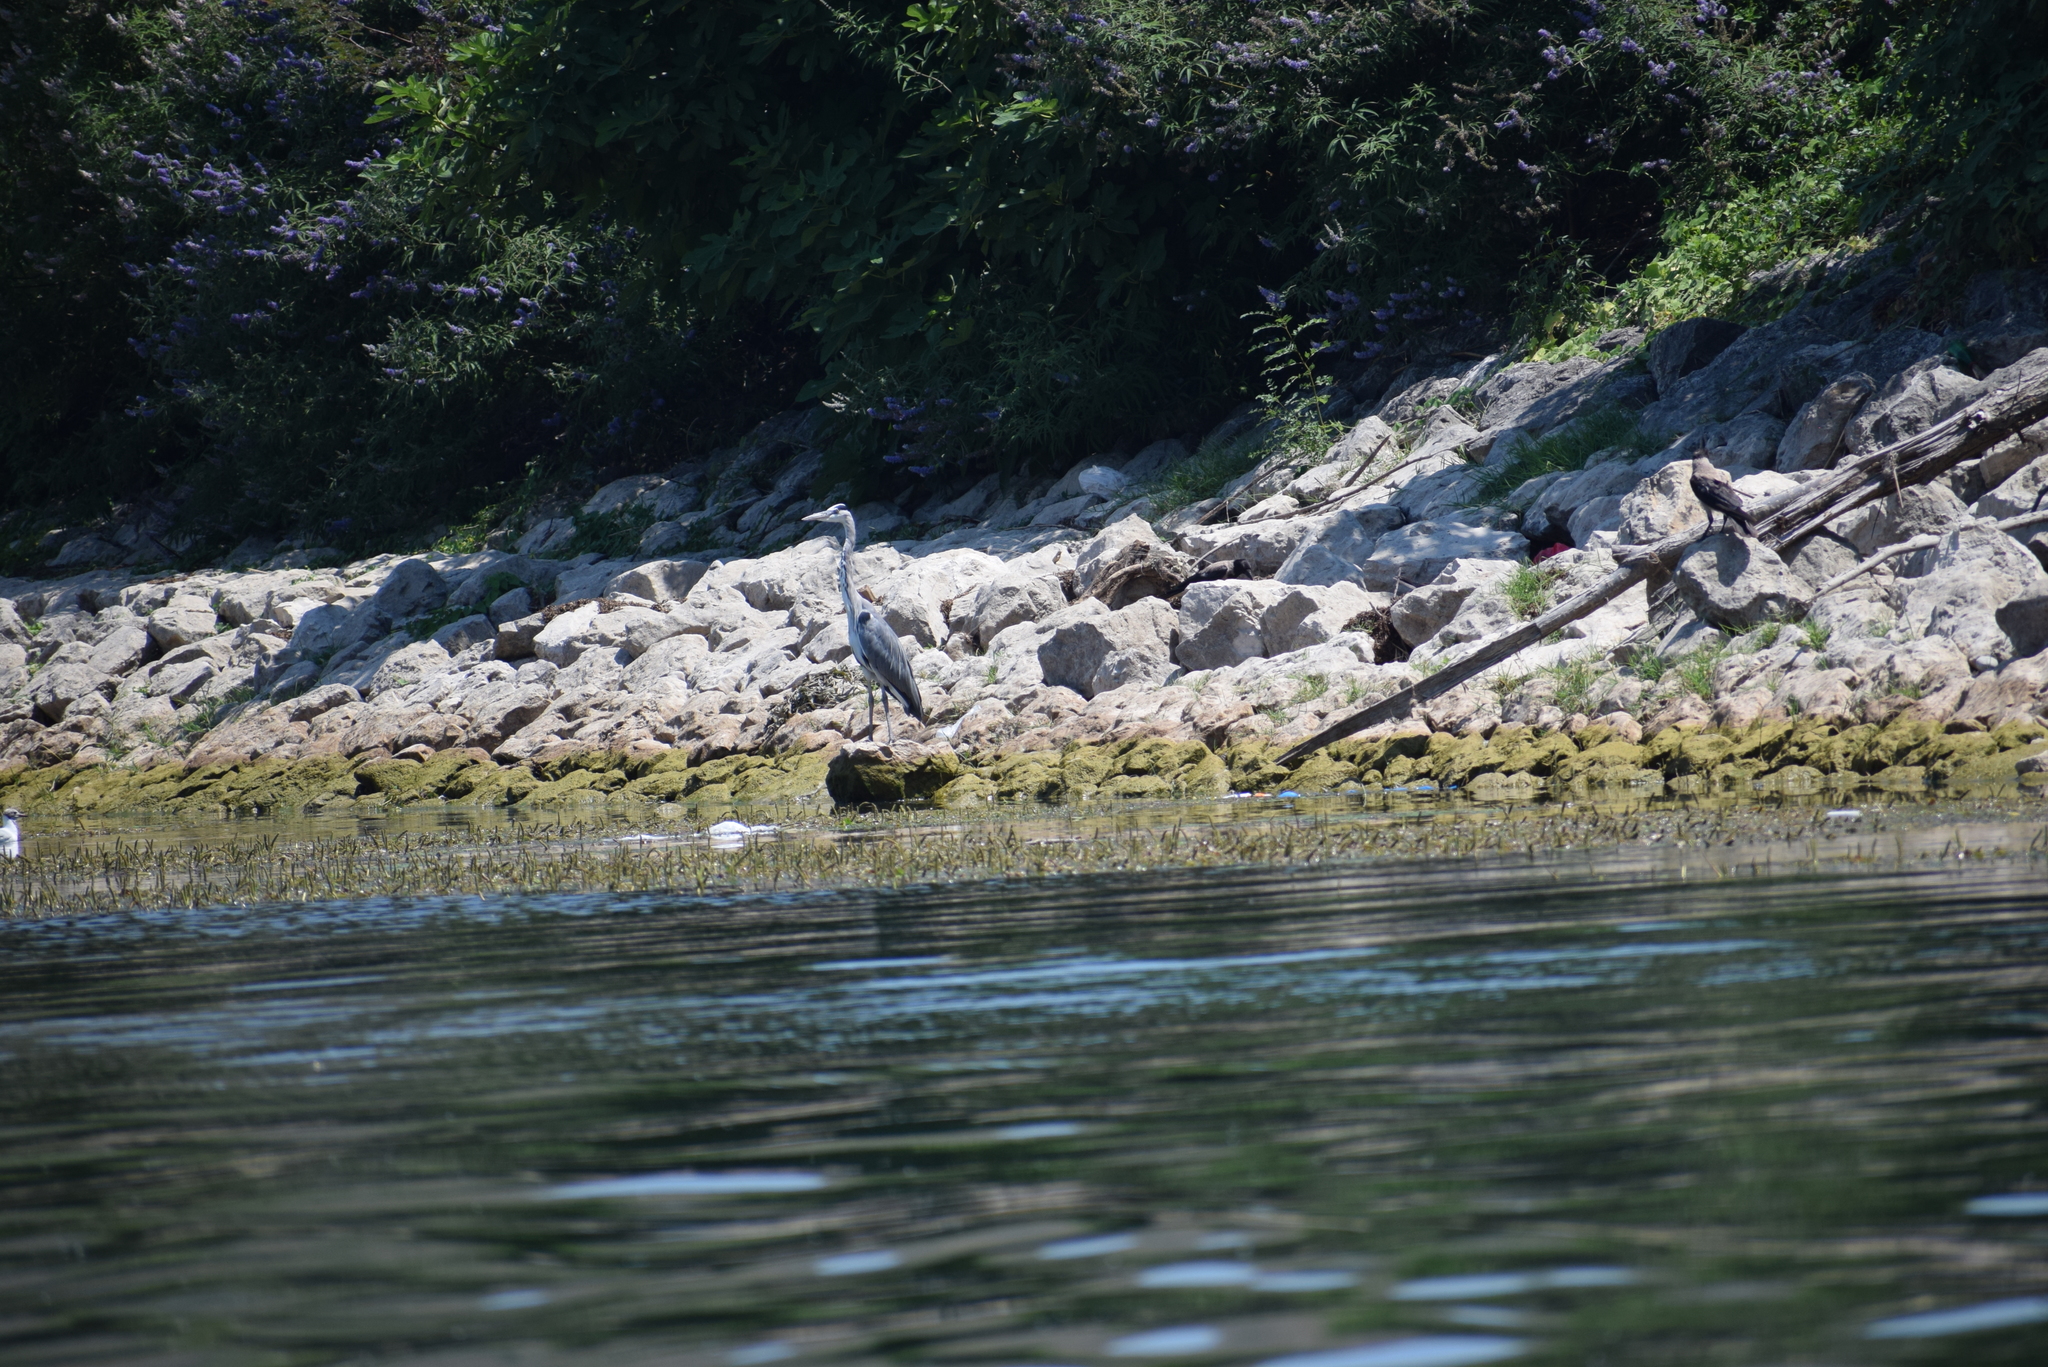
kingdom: Animalia
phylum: Chordata
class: Aves
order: Pelecaniformes
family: Ardeidae
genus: Ardea
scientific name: Ardea cinerea
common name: Grey heron
